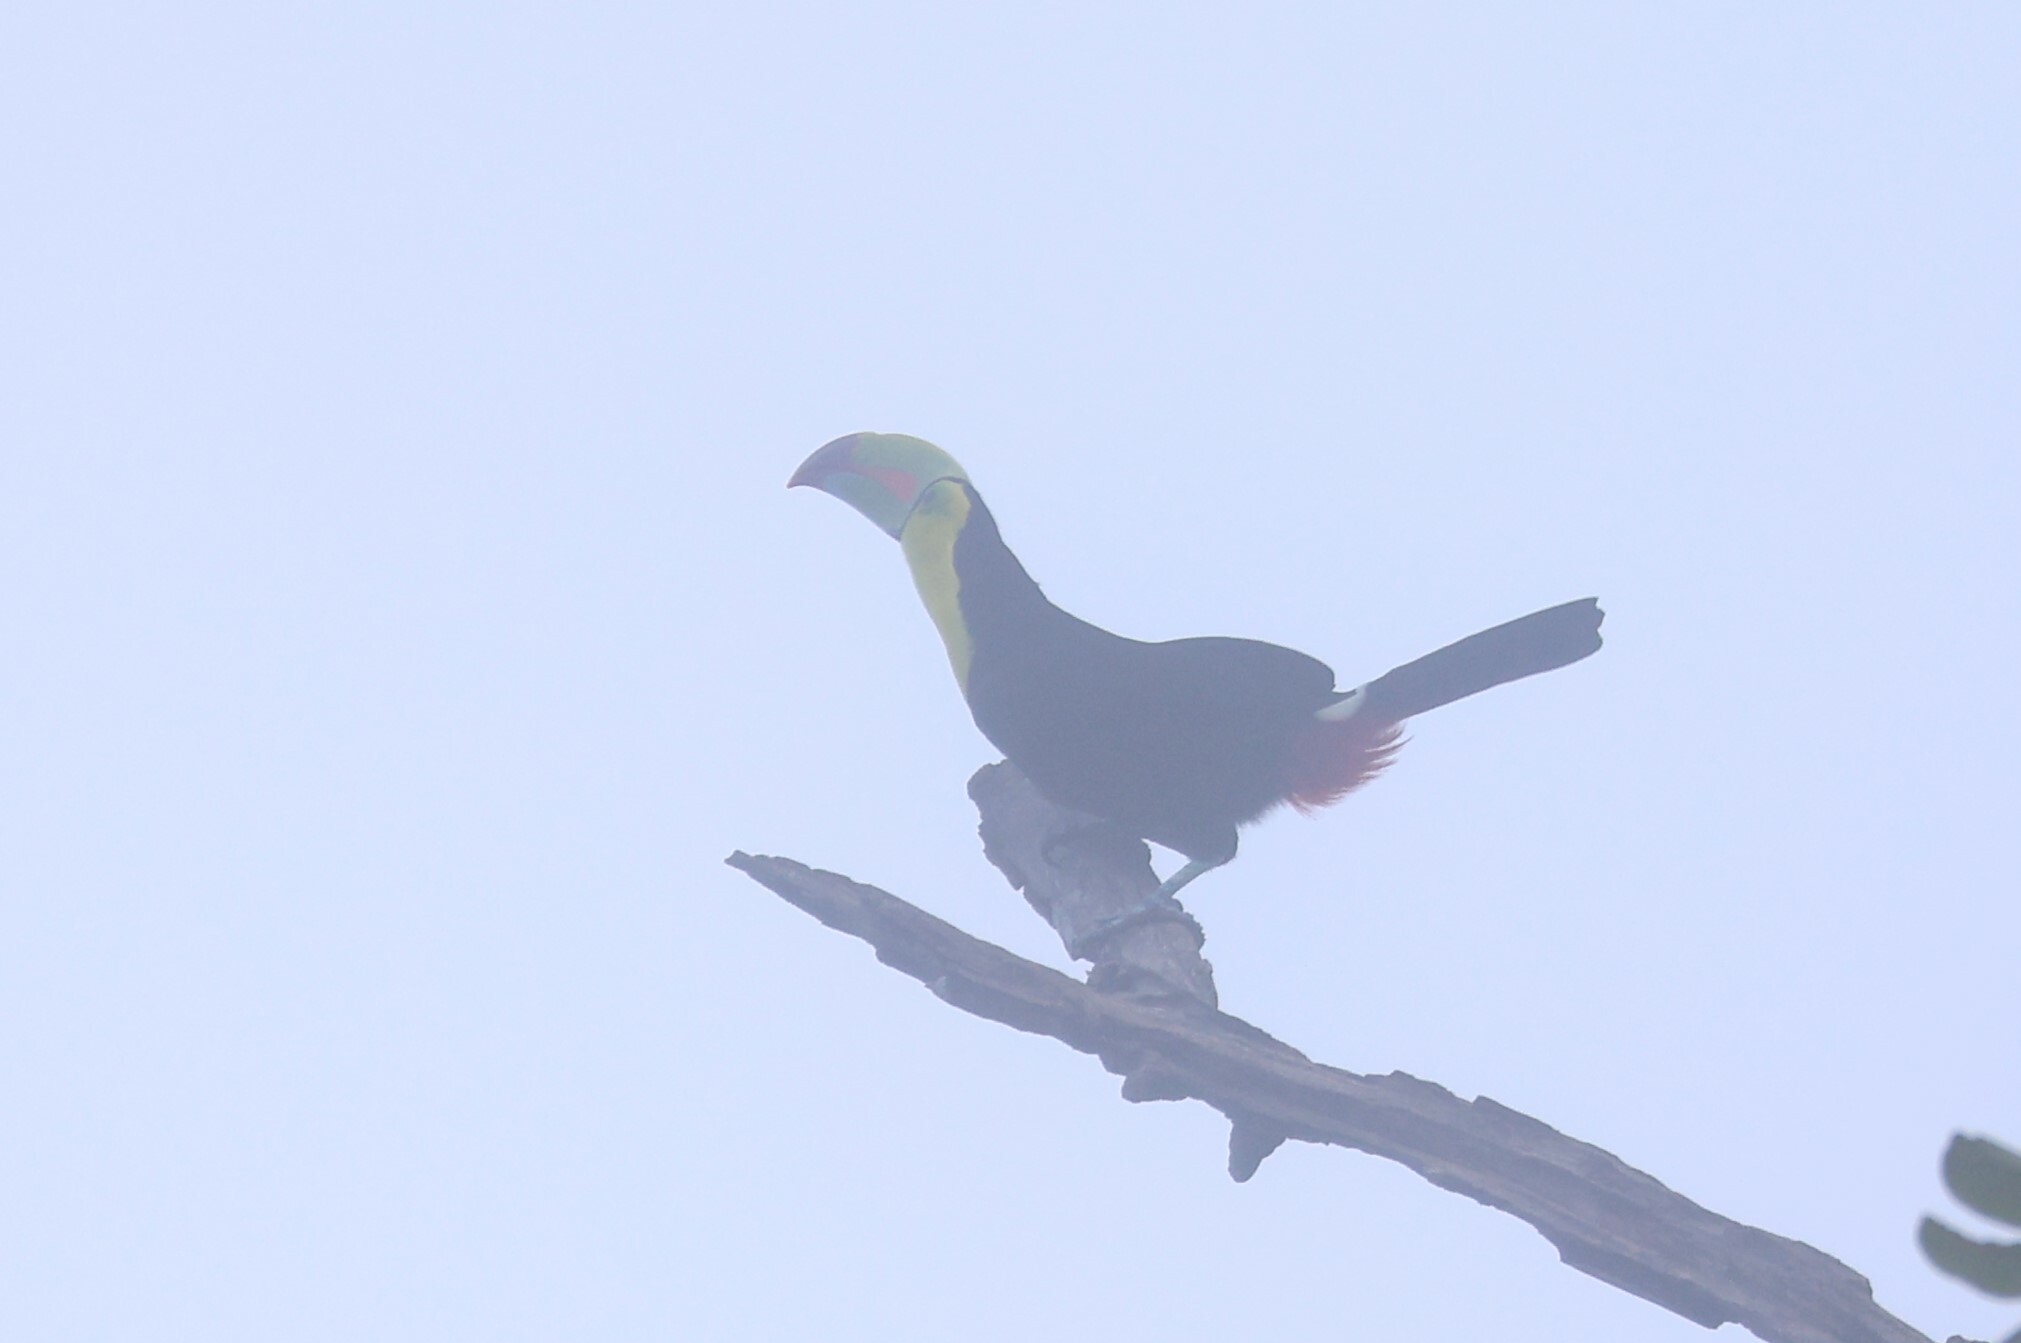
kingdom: Animalia
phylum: Chordata
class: Aves
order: Piciformes
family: Ramphastidae
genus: Ramphastos
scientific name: Ramphastos sulfuratus
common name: Keel-billed toucan
